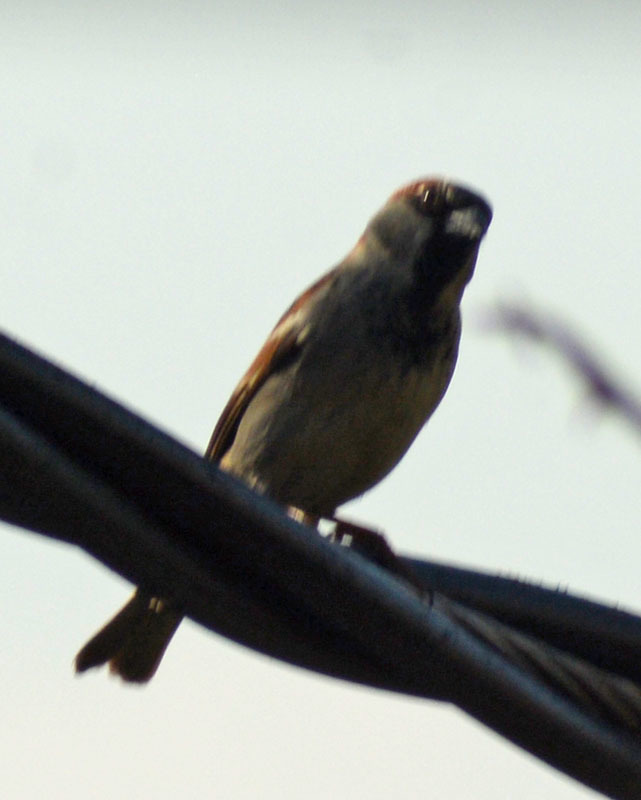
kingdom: Animalia
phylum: Chordata
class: Aves
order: Passeriformes
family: Passeridae
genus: Passer
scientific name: Passer domesticus
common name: House sparrow
